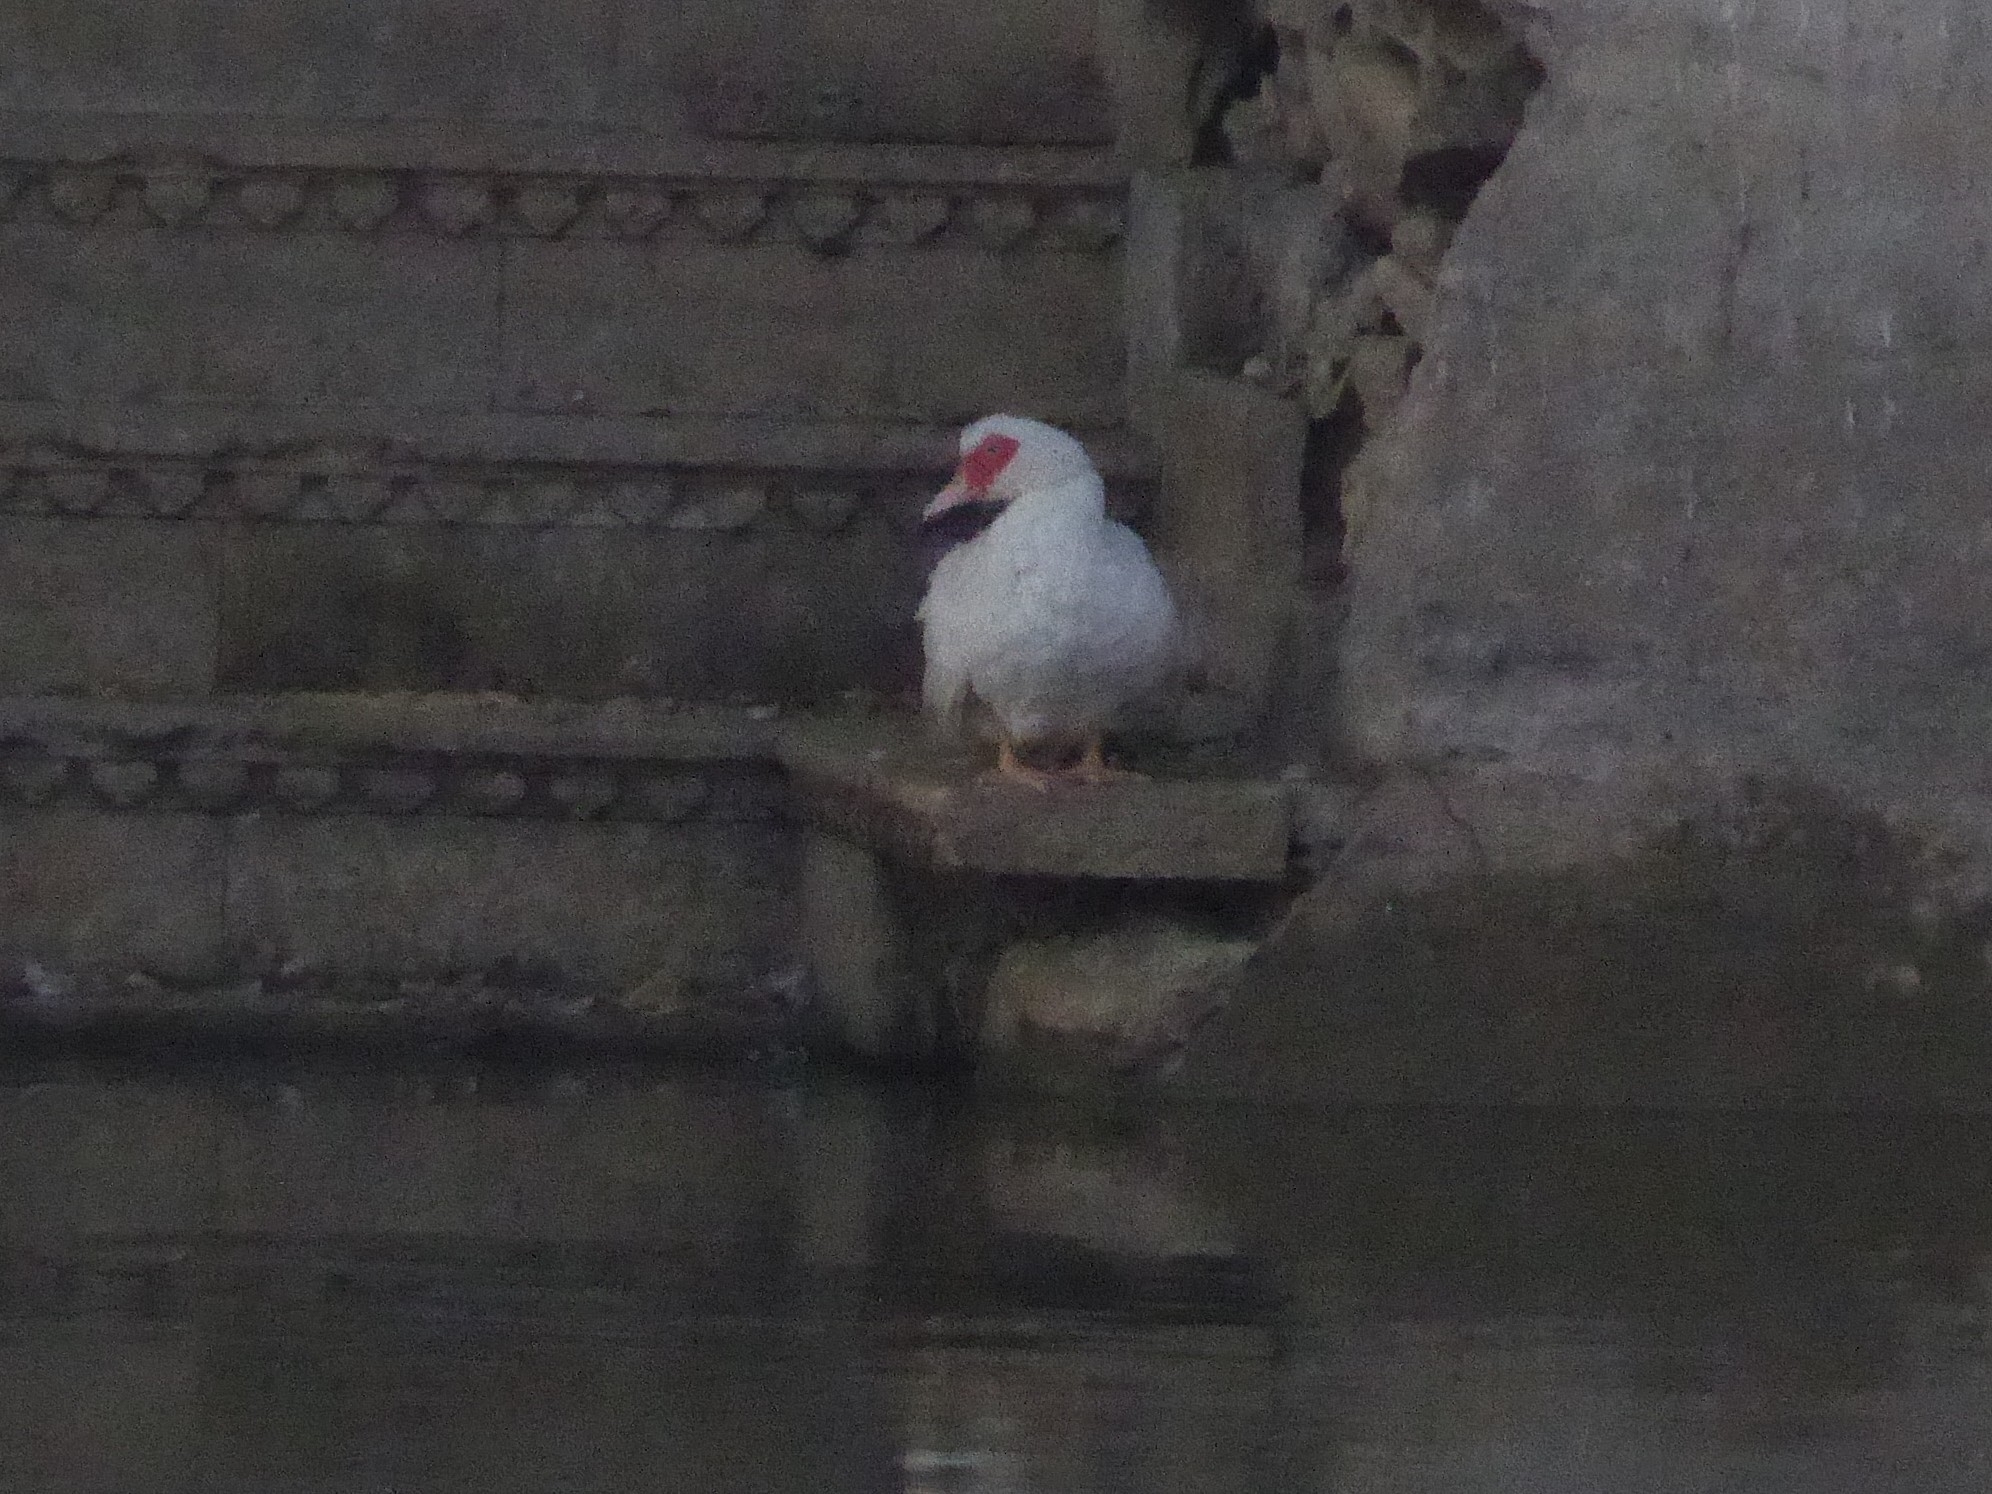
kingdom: Animalia
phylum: Chordata
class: Aves
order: Anseriformes
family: Anatidae
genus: Cairina
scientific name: Cairina moschata
